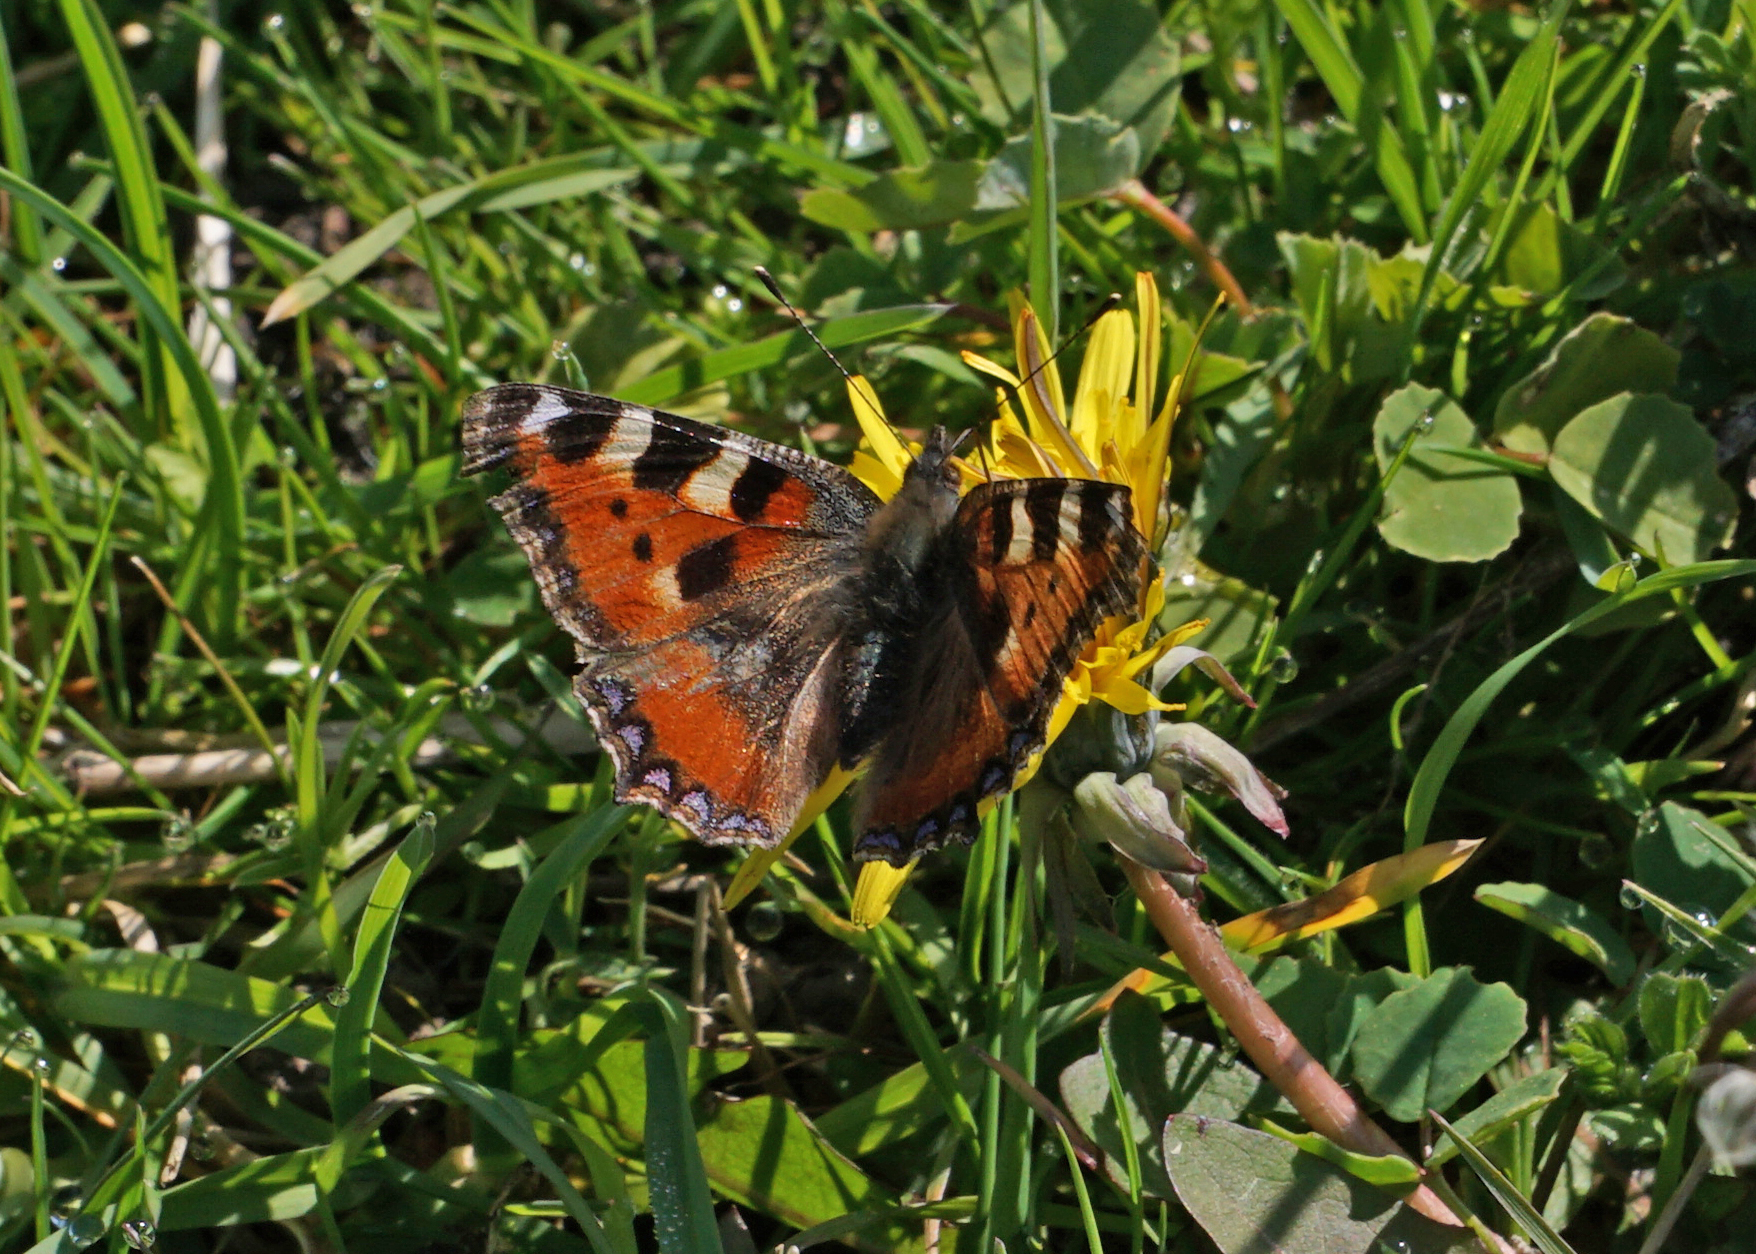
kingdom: Animalia
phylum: Arthropoda
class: Insecta
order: Lepidoptera
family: Nymphalidae
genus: Aglais
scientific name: Aglais urticae
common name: Small tortoiseshell
